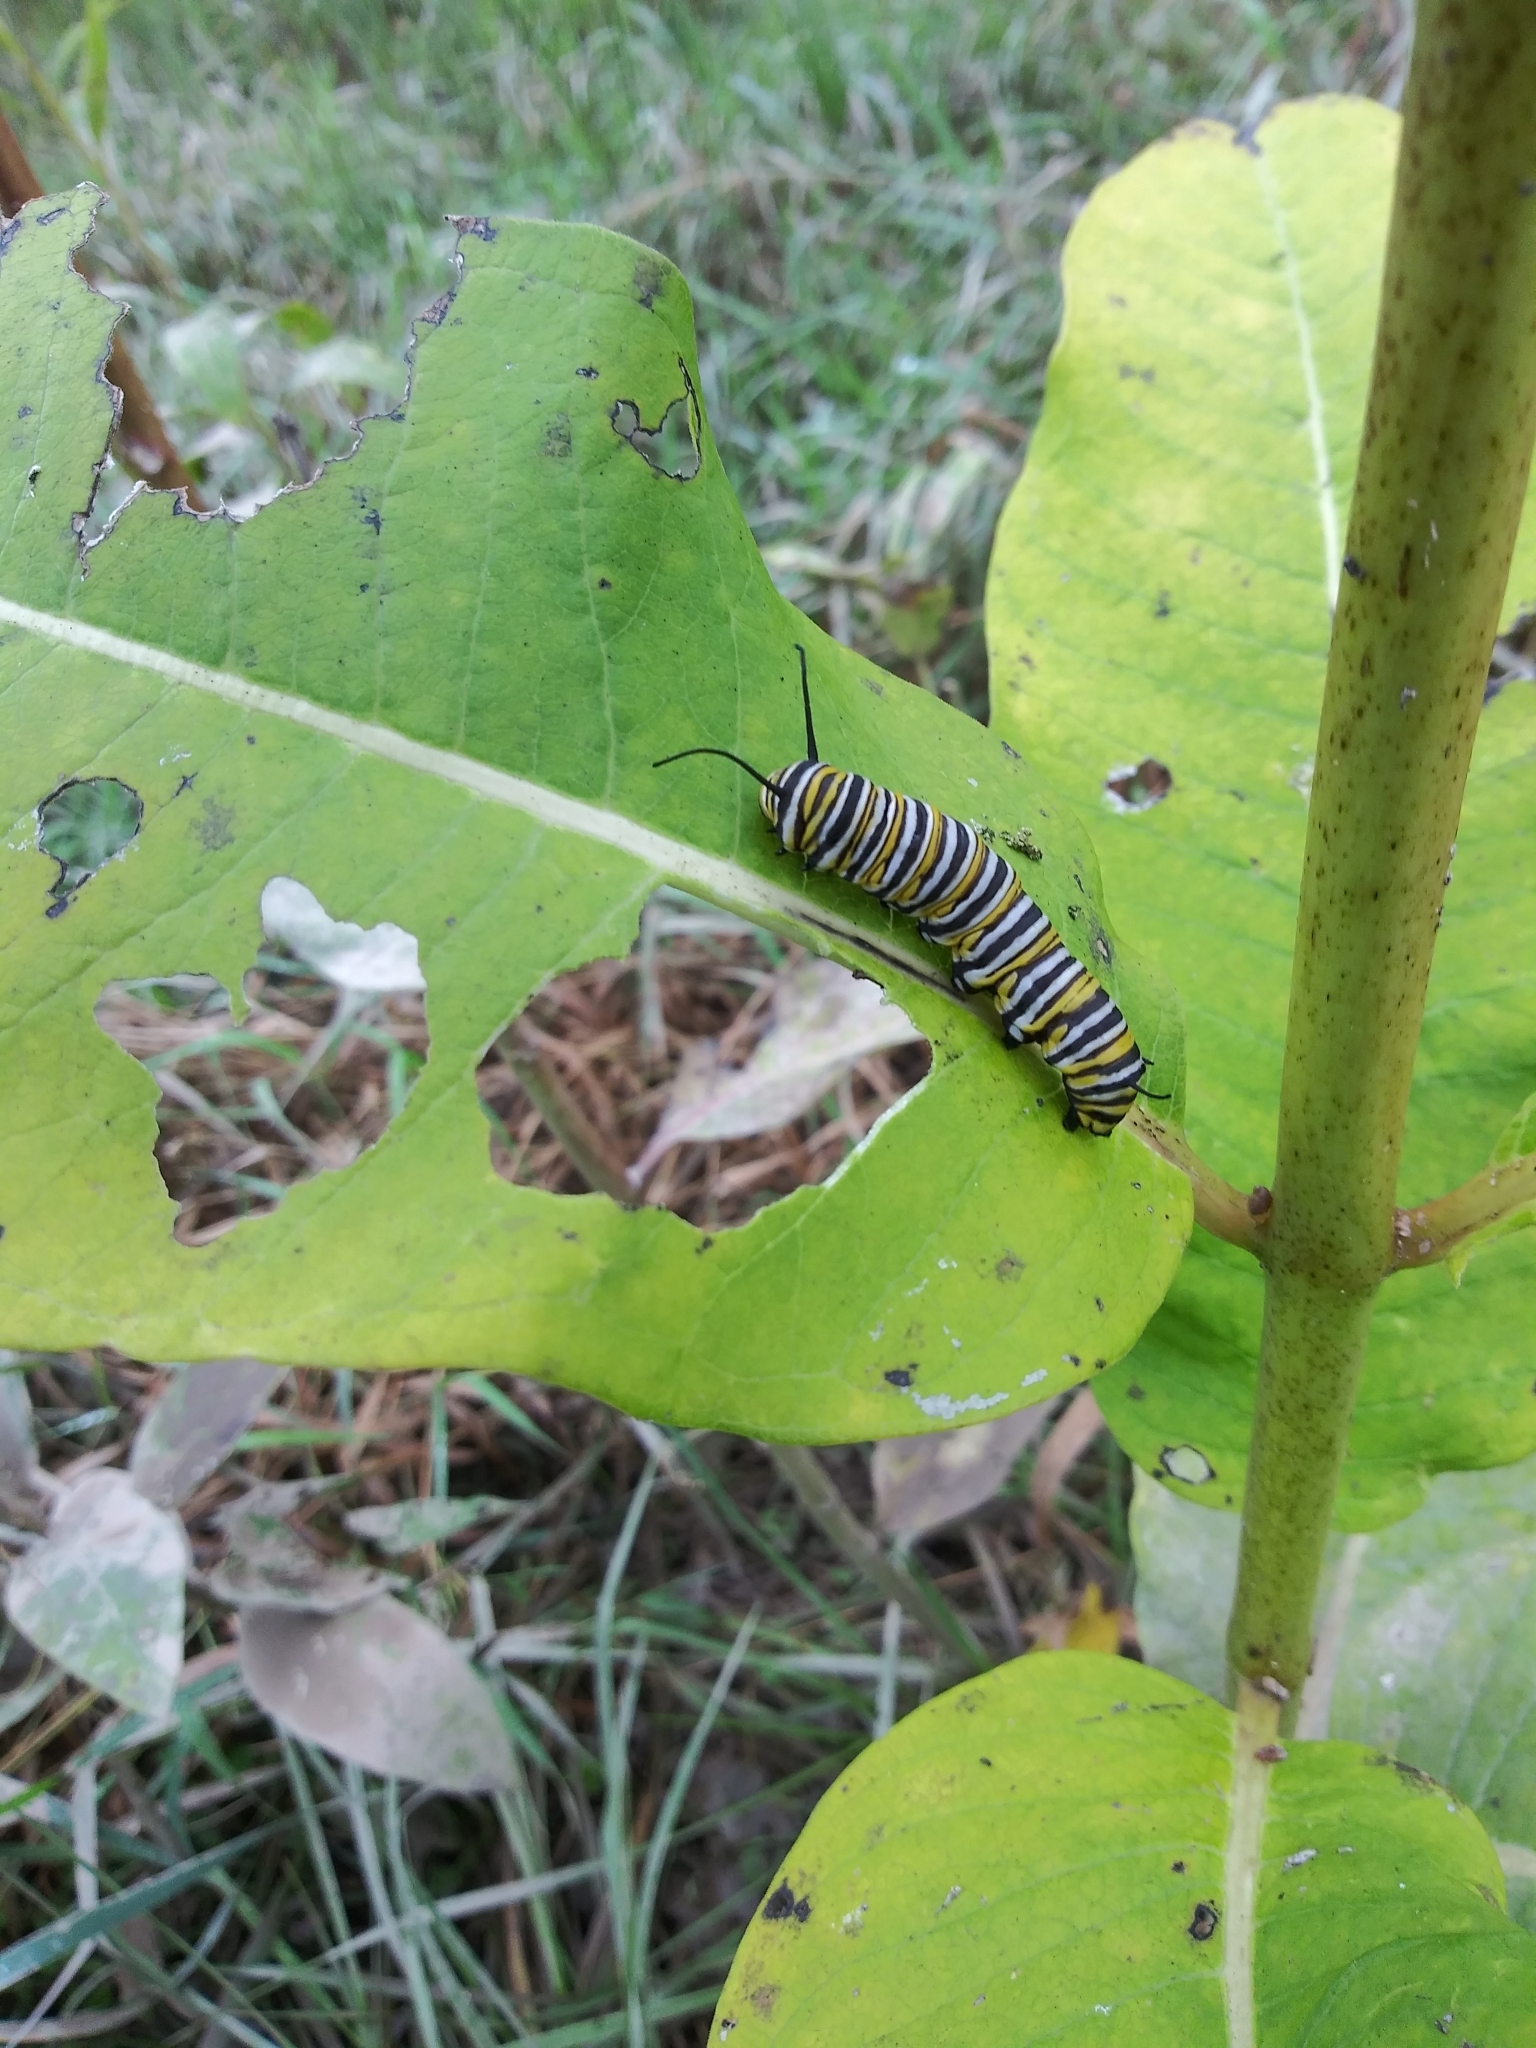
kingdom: Animalia
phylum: Arthropoda
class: Insecta
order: Lepidoptera
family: Nymphalidae
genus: Danaus
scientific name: Danaus plexippus
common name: Monarch
